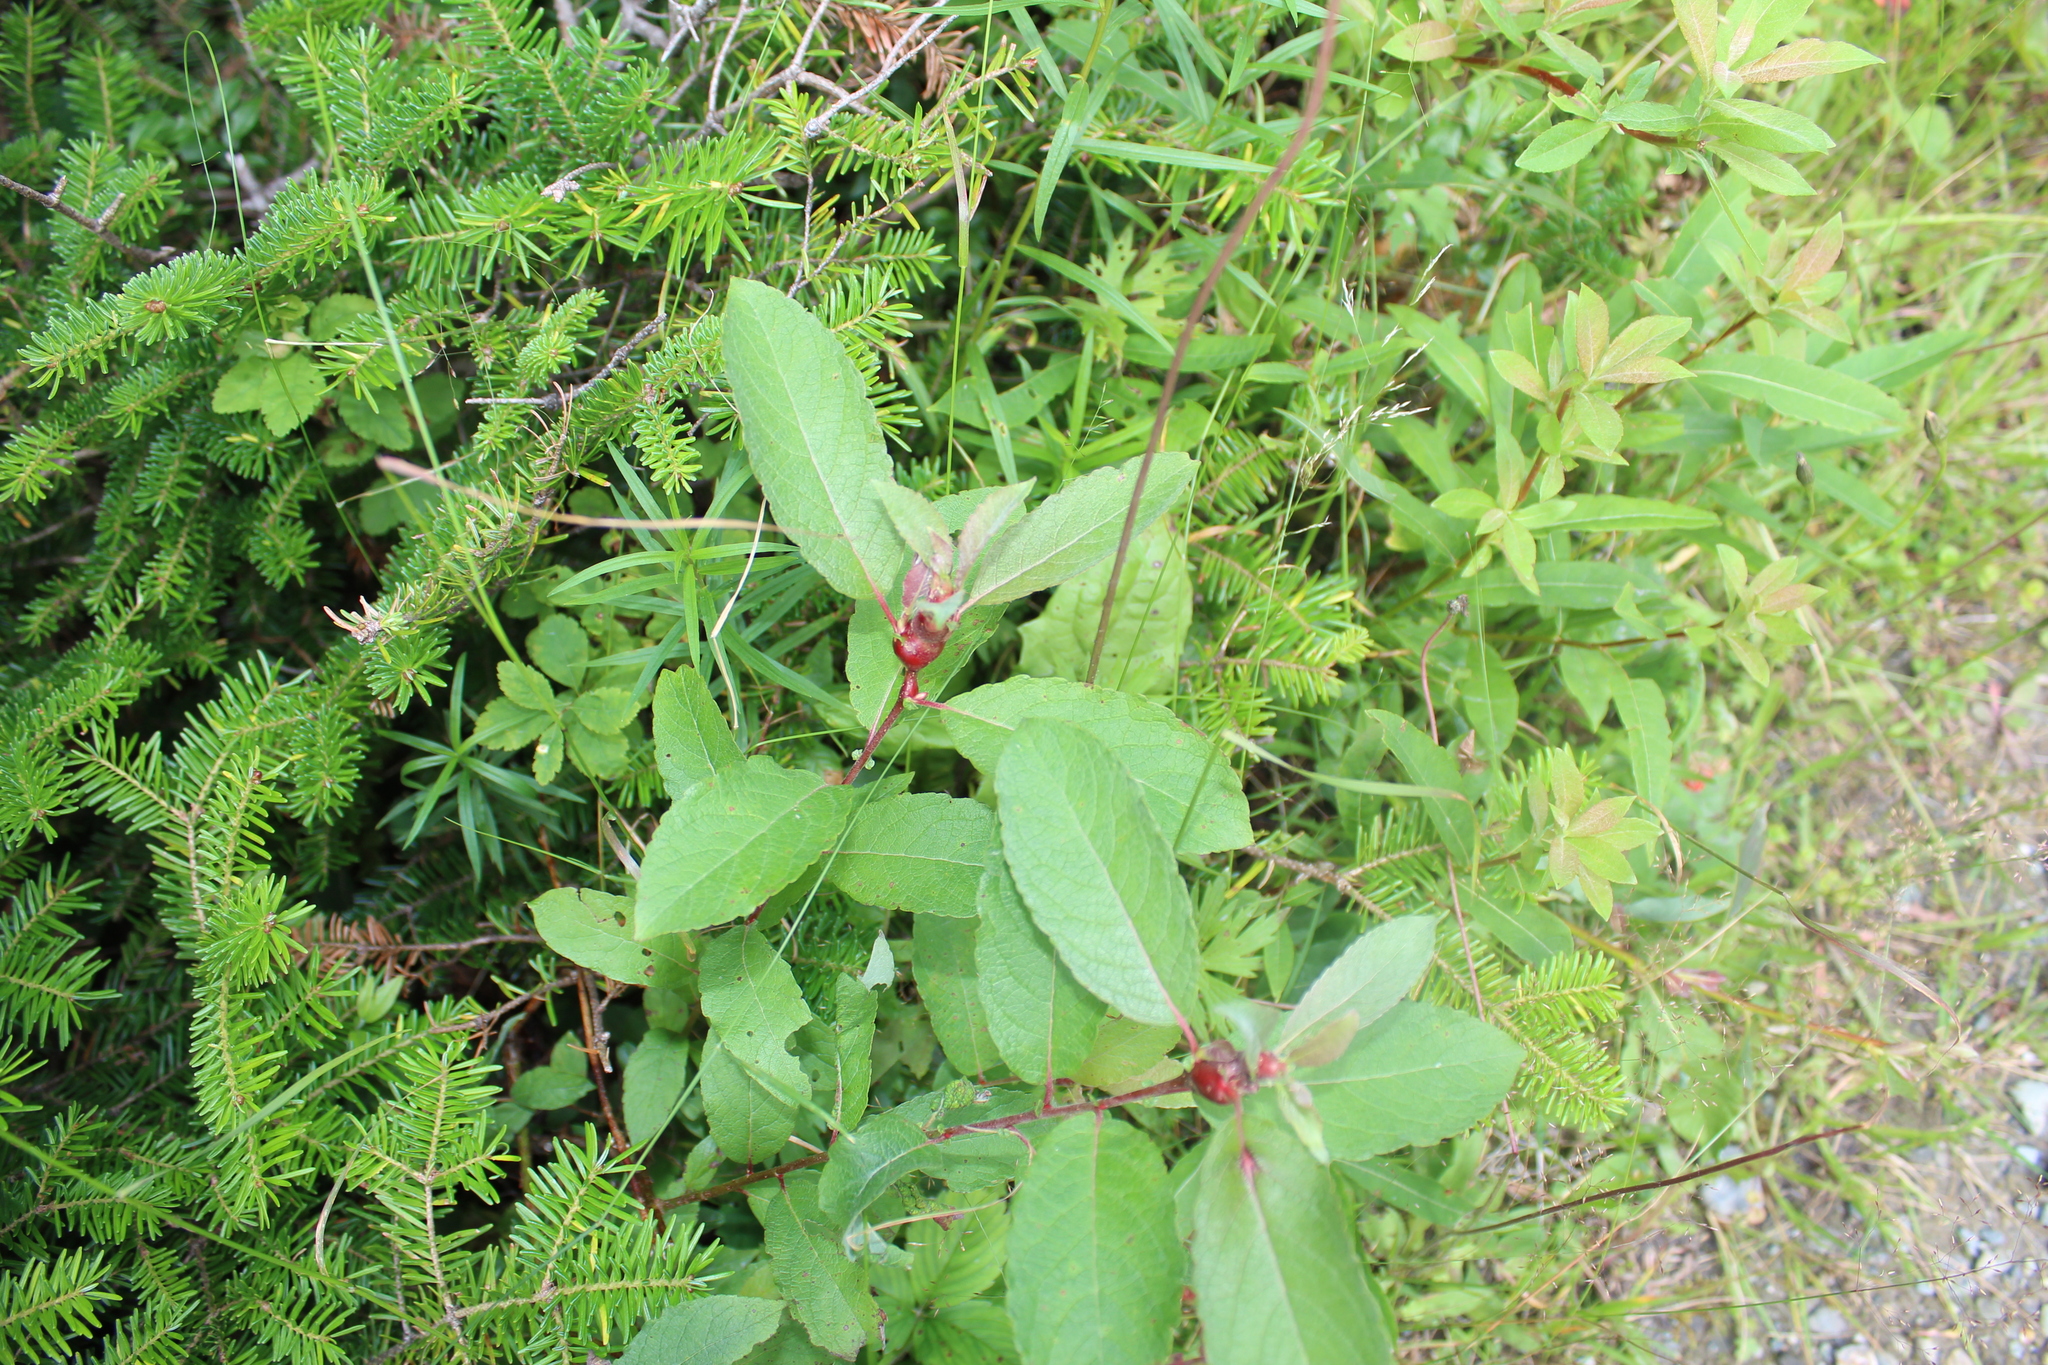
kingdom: Animalia
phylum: Arthropoda
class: Insecta
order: Diptera
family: Cecidomyiidae
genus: Rabdophaga
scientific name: Rabdophaga salicisbatatas
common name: Potato gall midge
